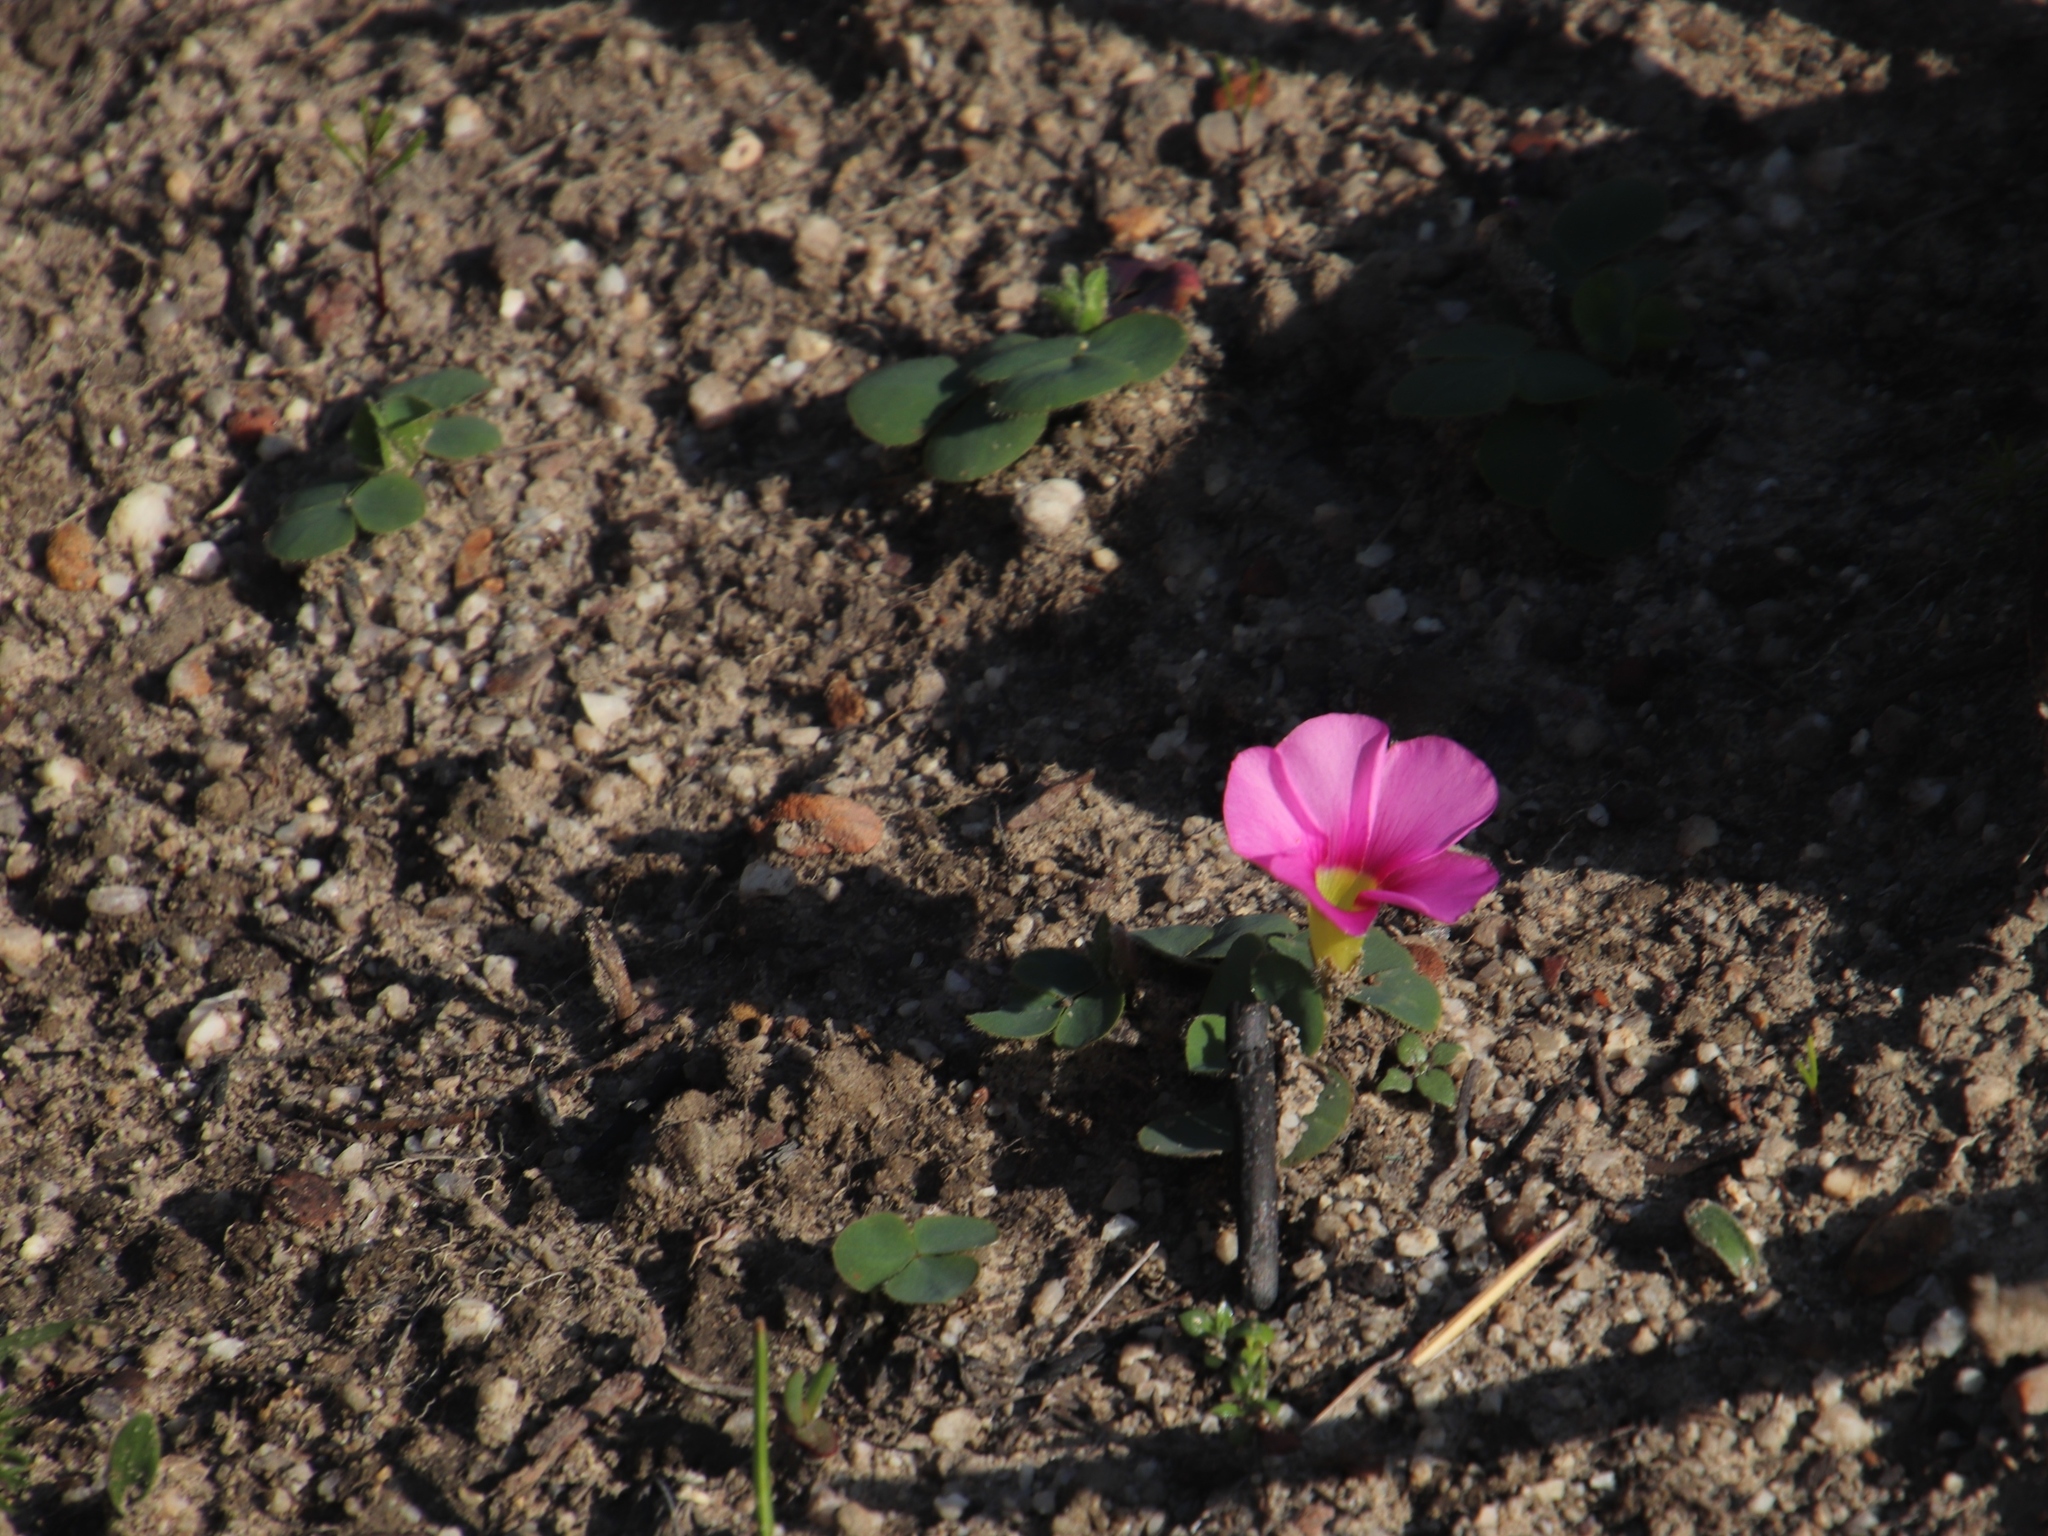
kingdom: Plantae
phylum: Tracheophyta
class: Magnoliopsida
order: Oxalidales
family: Oxalidaceae
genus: Oxalis
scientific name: Oxalis purpurea
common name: Purple woodsorrel
